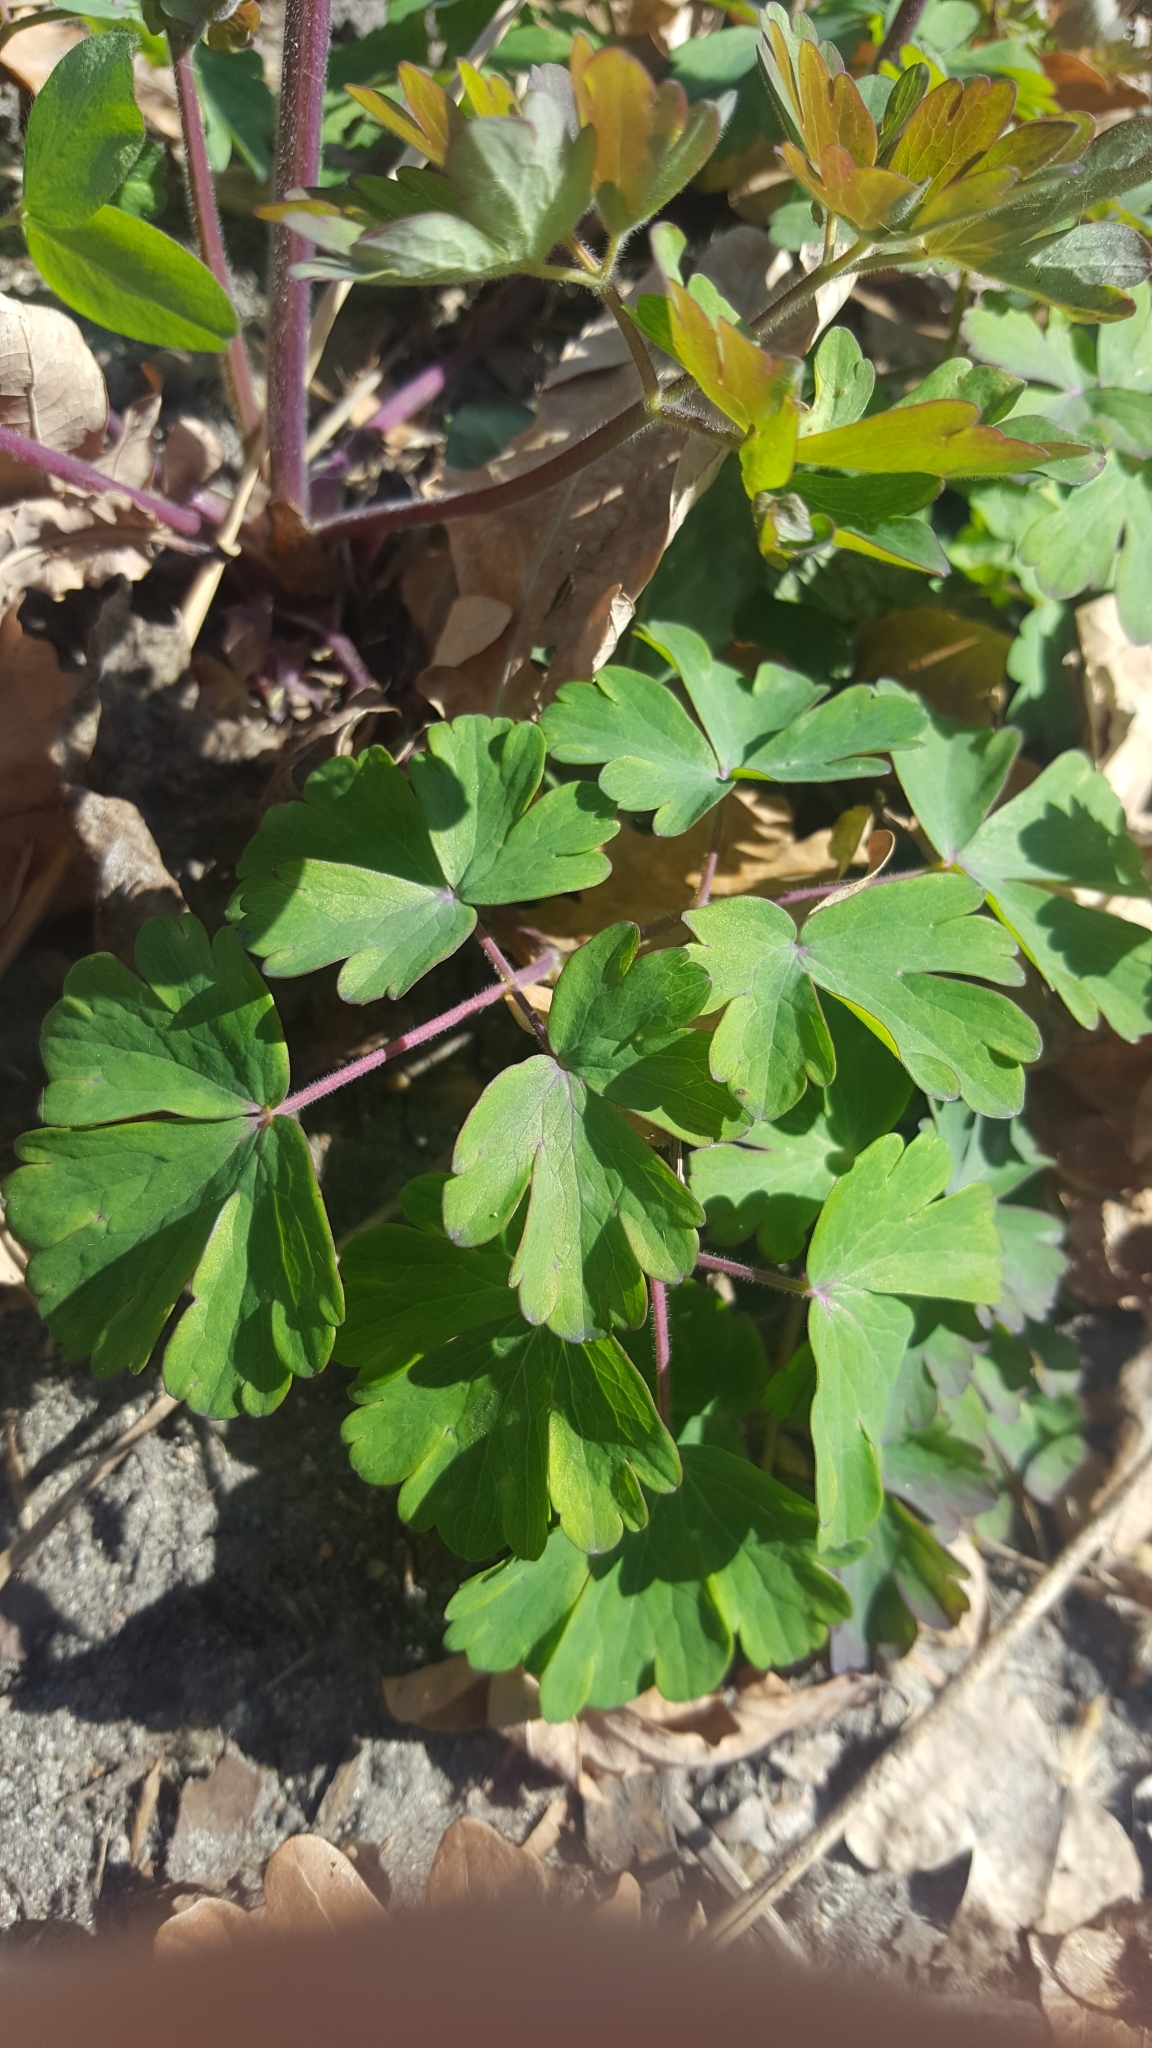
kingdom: Plantae
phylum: Tracheophyta
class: Magnoliopsida
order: Ranunculales
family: Ranunculaceae
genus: Aquilegia
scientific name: Aquilegia vulgaris
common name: Columbine
